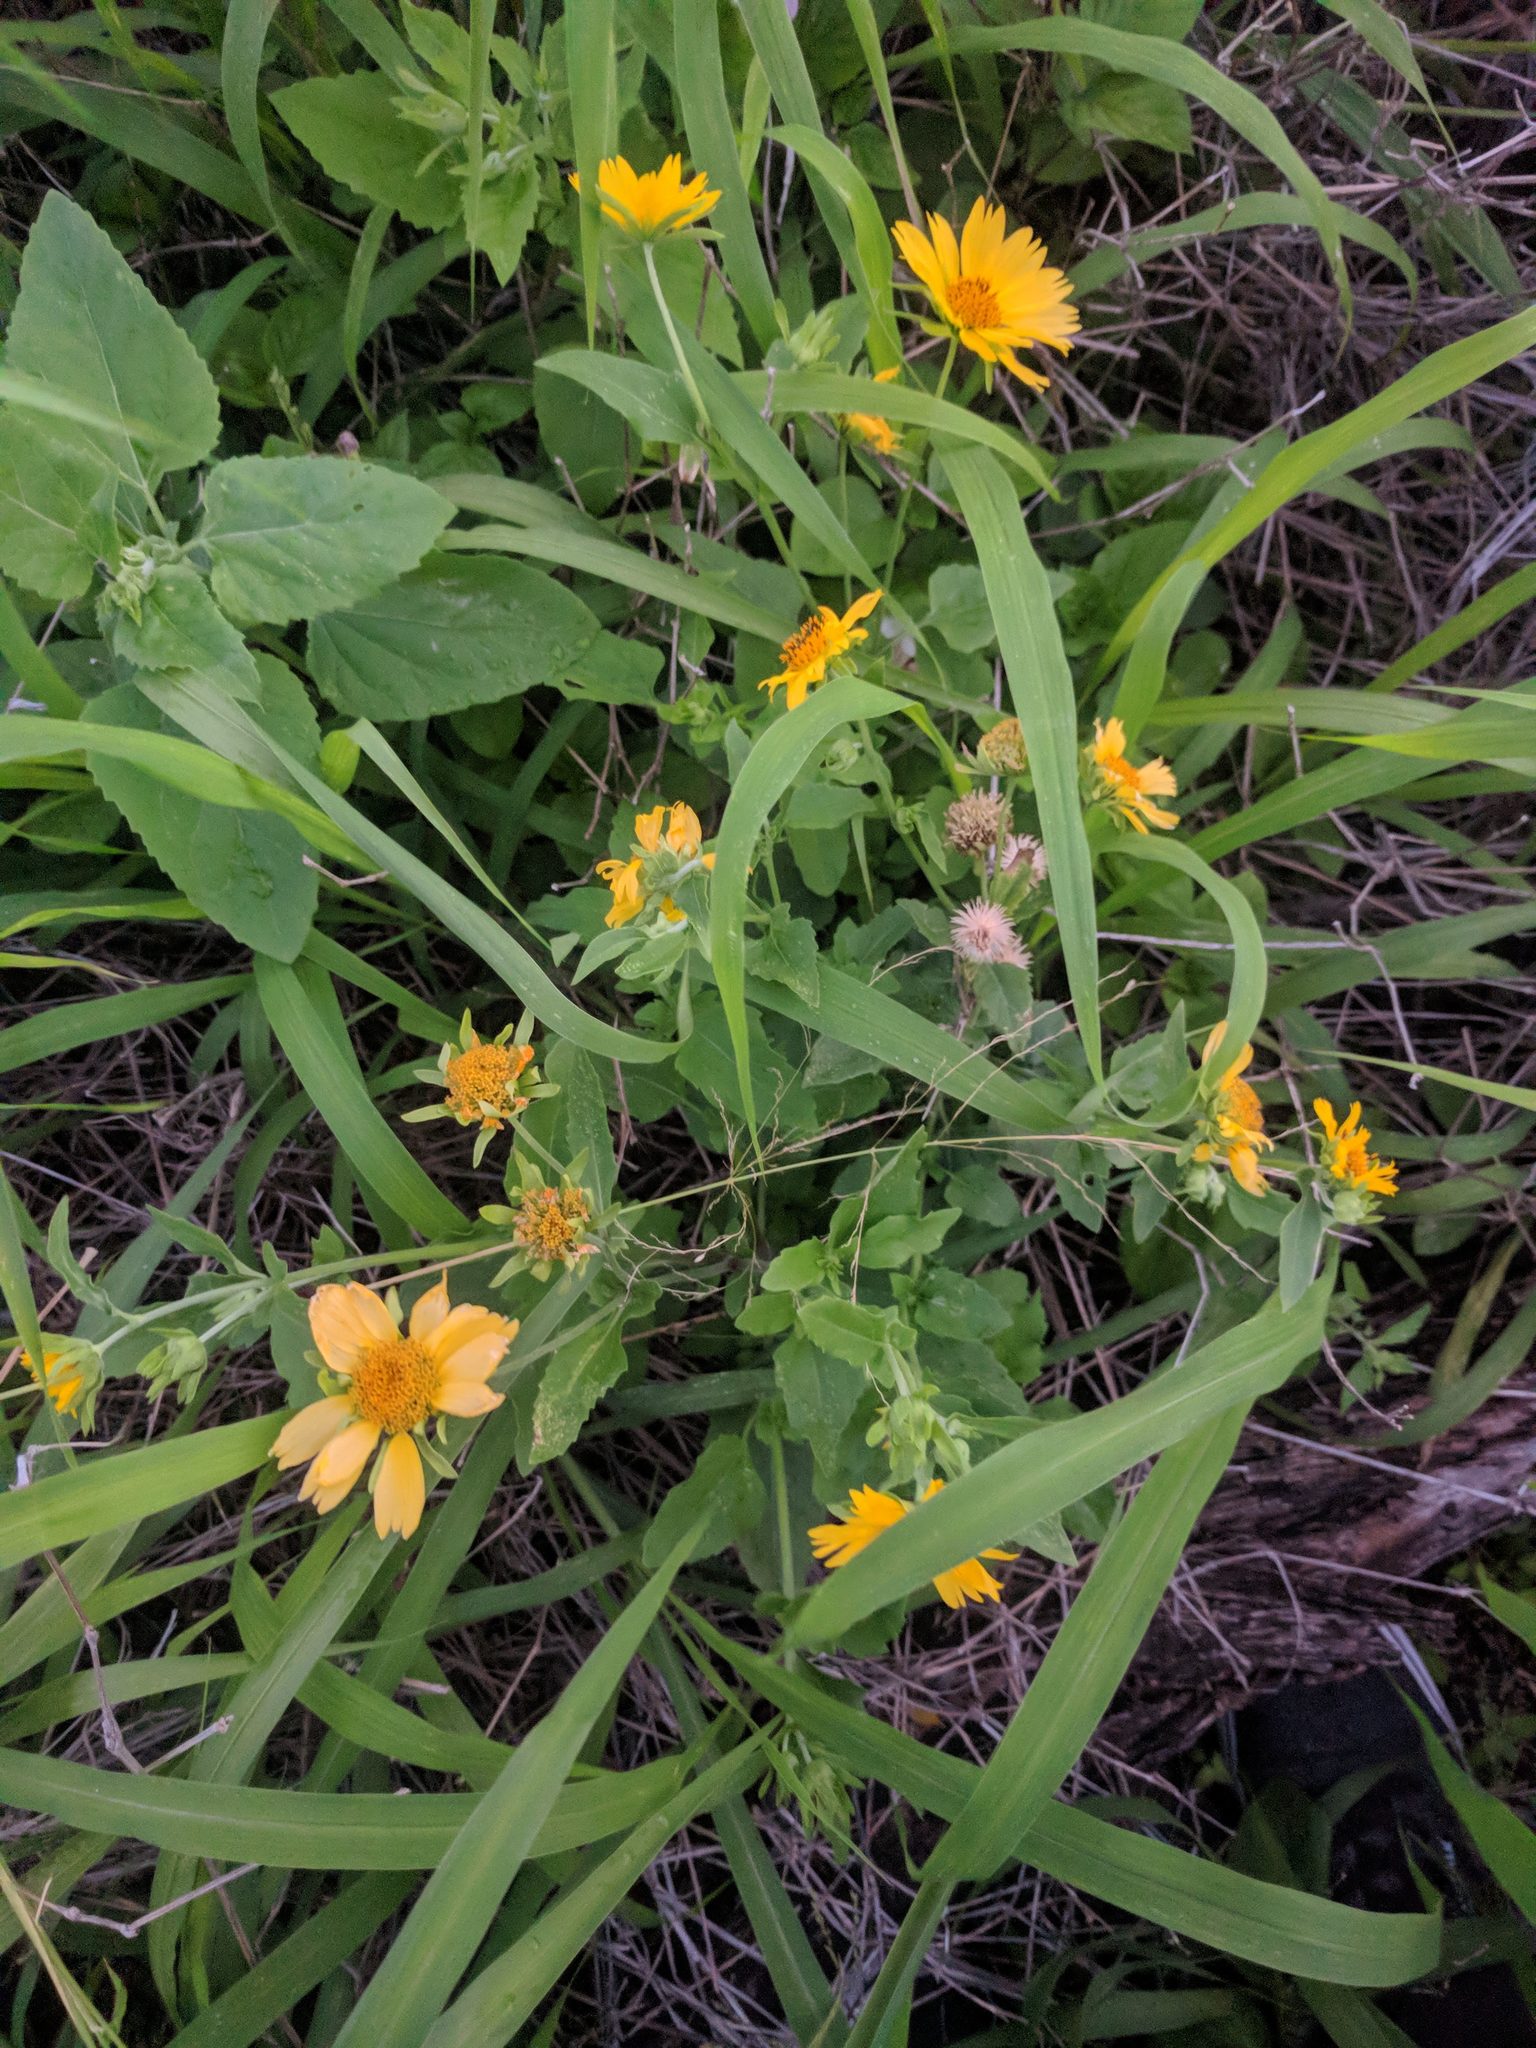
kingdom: Plantae
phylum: Tracheophyta
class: Magnoliopsida
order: Asterales
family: Asteraceae
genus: Verbesina
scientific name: Verbesina encelioides
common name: Golden crownbeard
